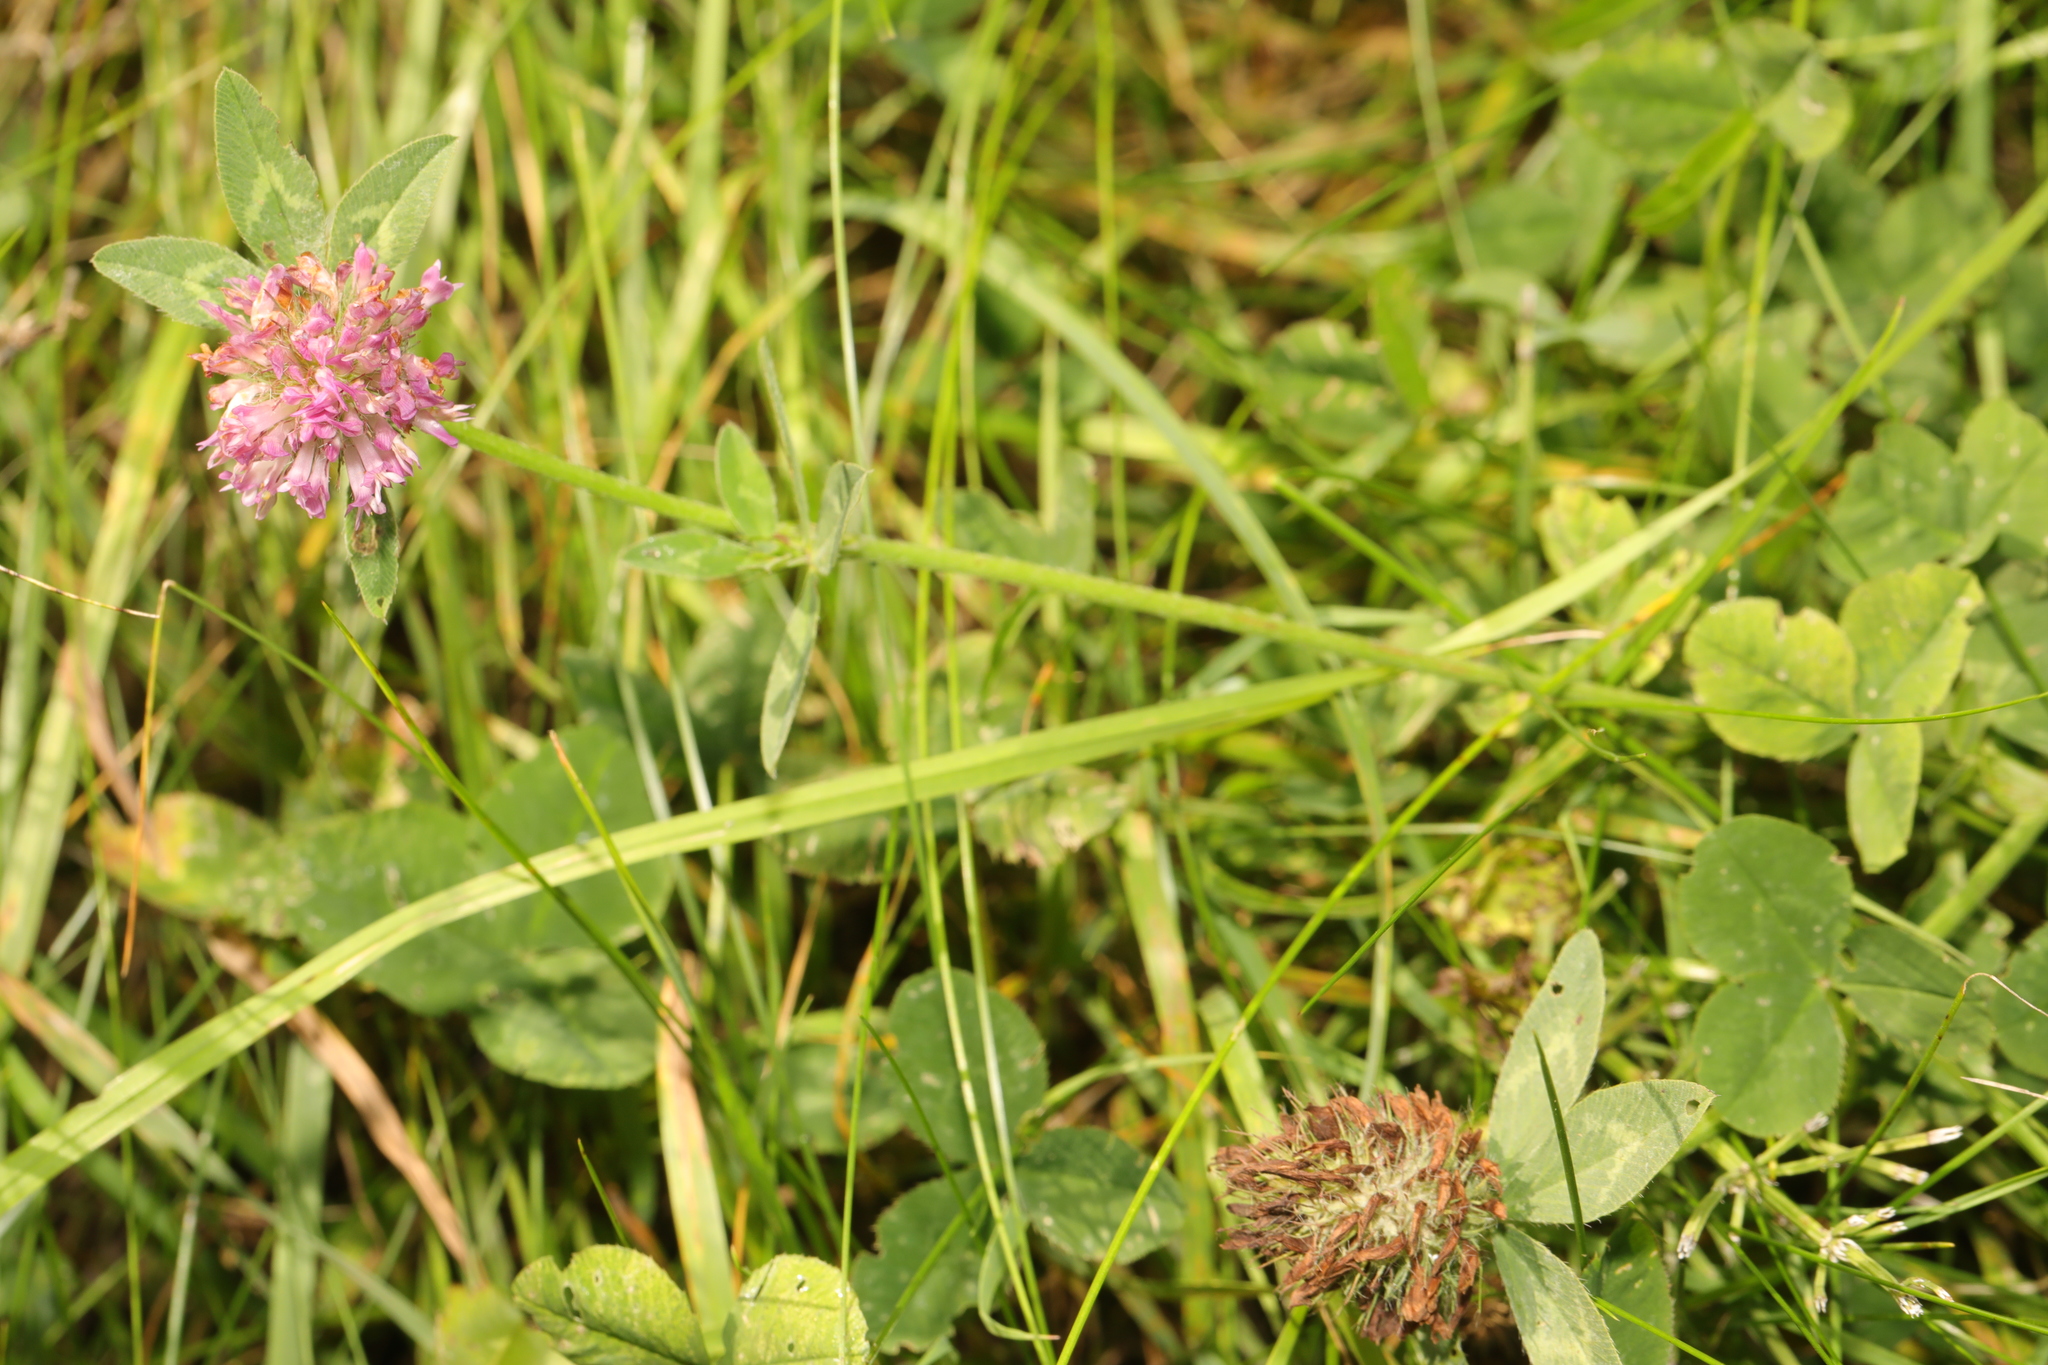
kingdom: Plantae
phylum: Tracheophyta
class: Magnoliopsida
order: Fabales
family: Fabaceae
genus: Trifolium
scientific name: Trifolium pratense
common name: Red clover
